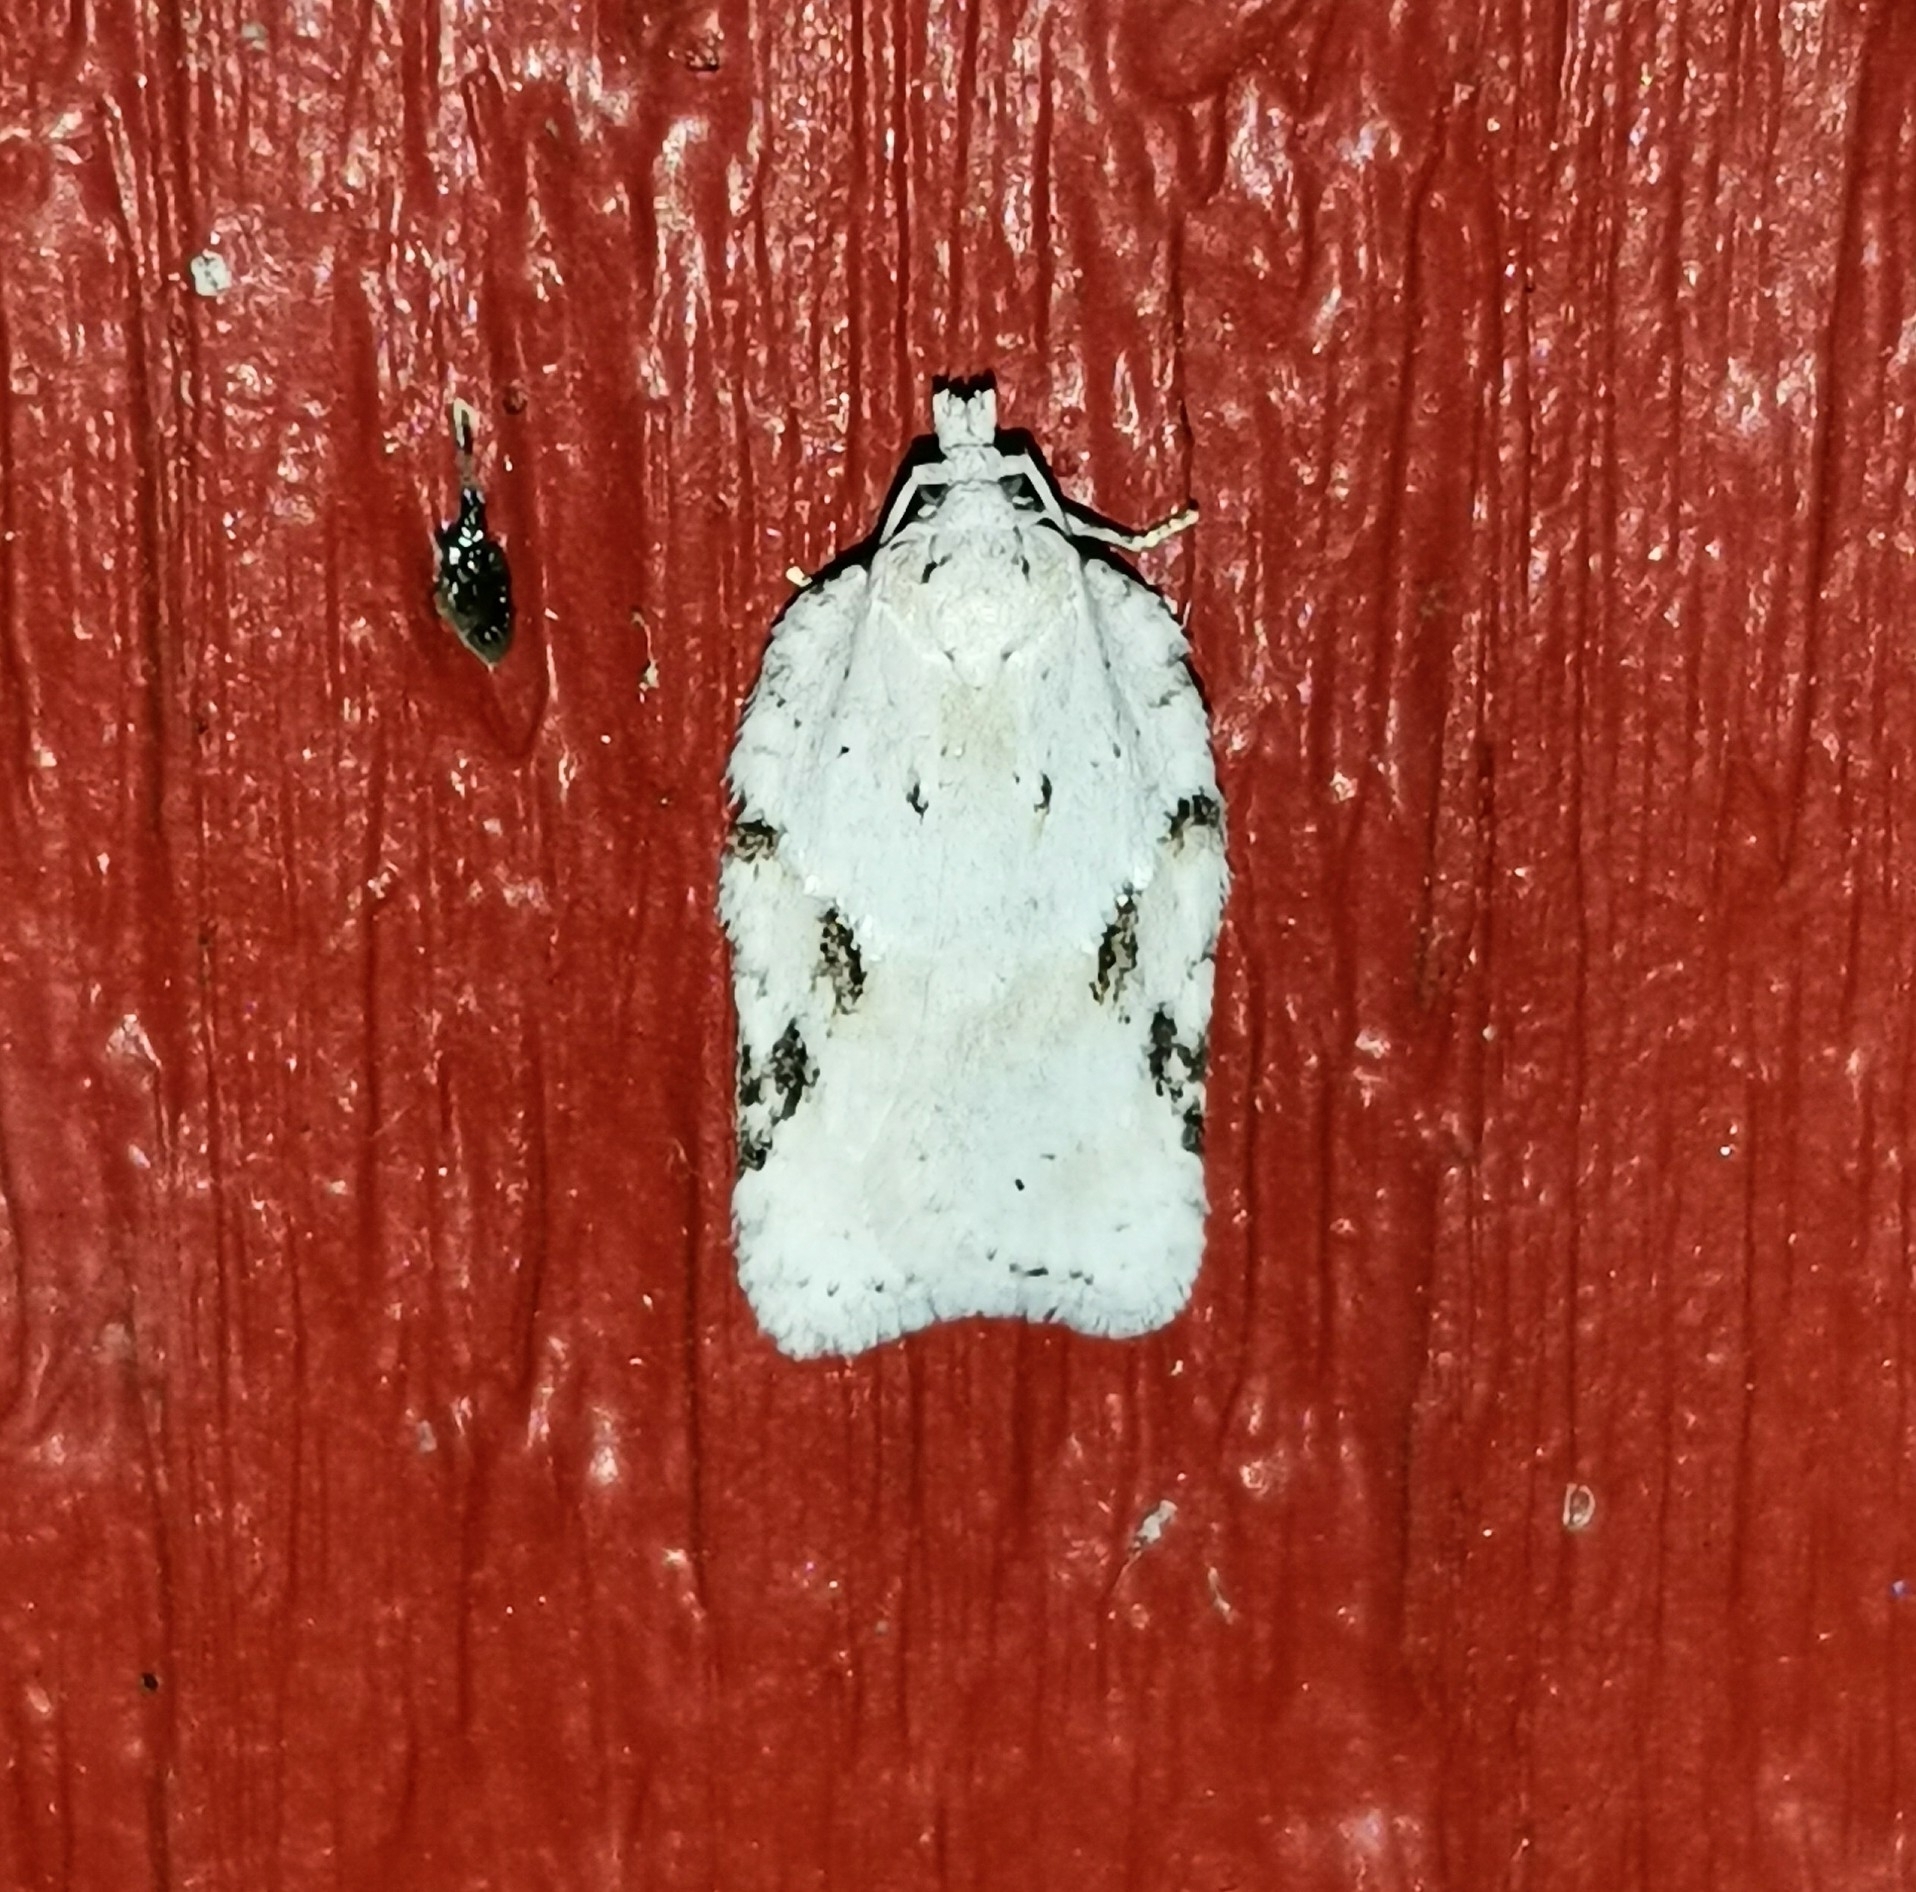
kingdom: Animalia
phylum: Arthropoda
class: Insecta
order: Lepidoptera
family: Tortricidae
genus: Acleris
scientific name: Acleris logiana
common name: Grey birch button
